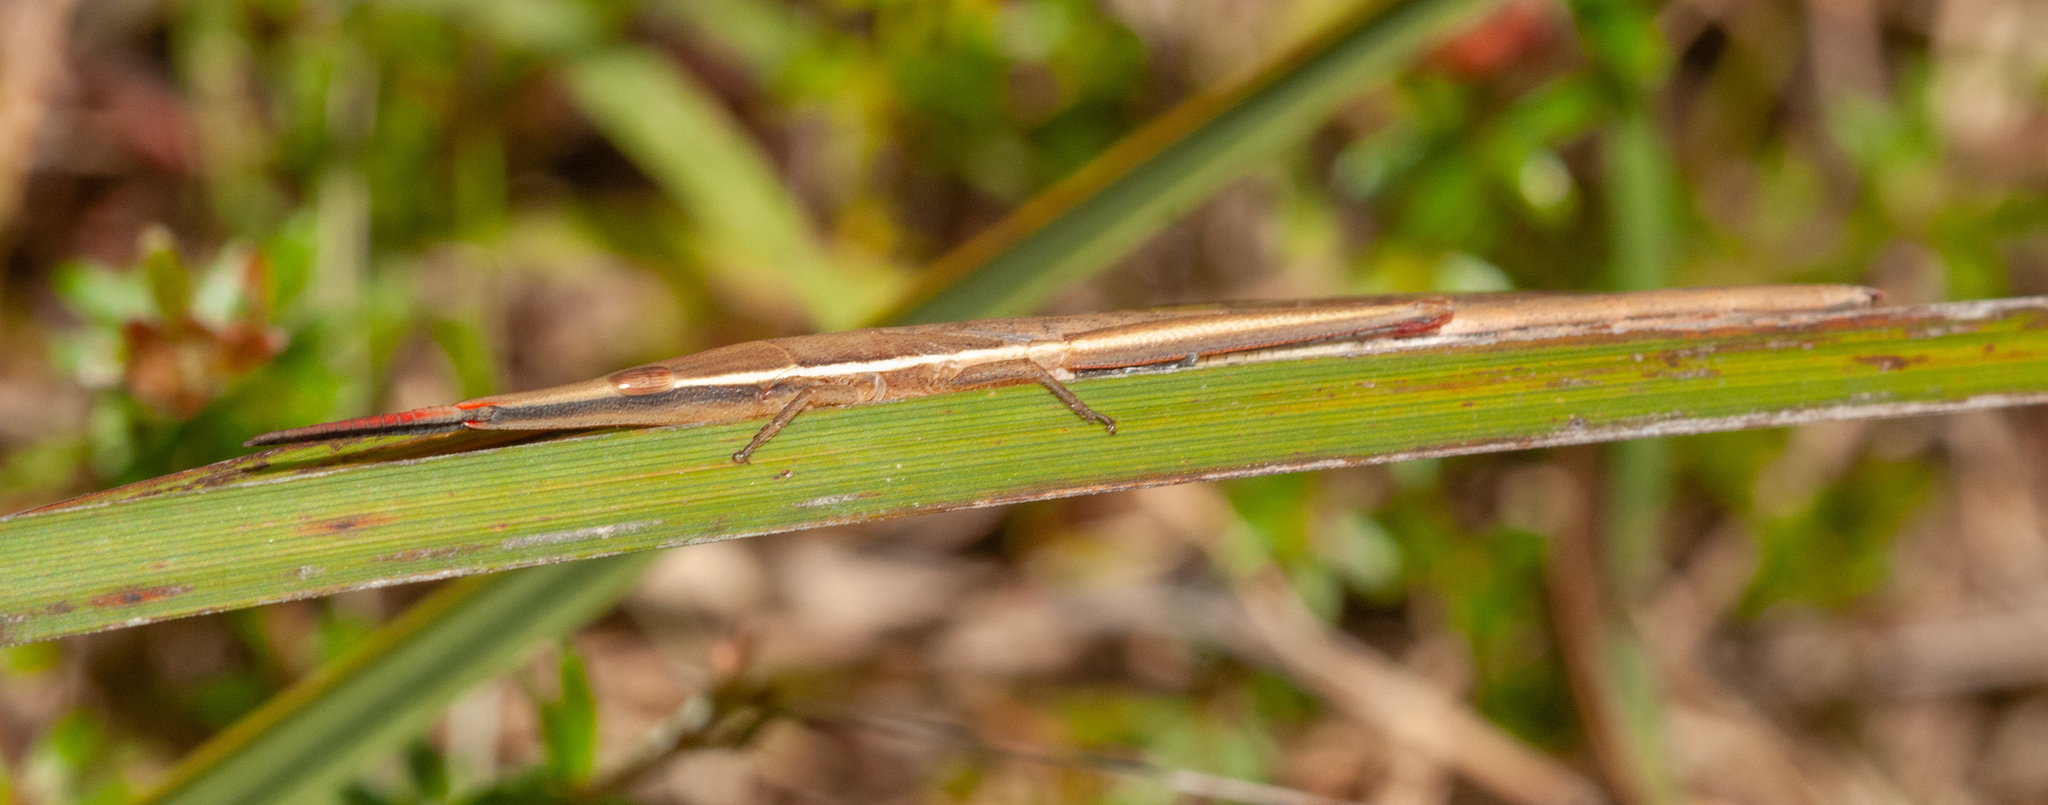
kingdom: Animalia
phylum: Arthropoda
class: Insecta
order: Orthoptera
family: Pyrgomorphidae
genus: Psednura
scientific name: Psednura pedestris
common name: Common psednura
